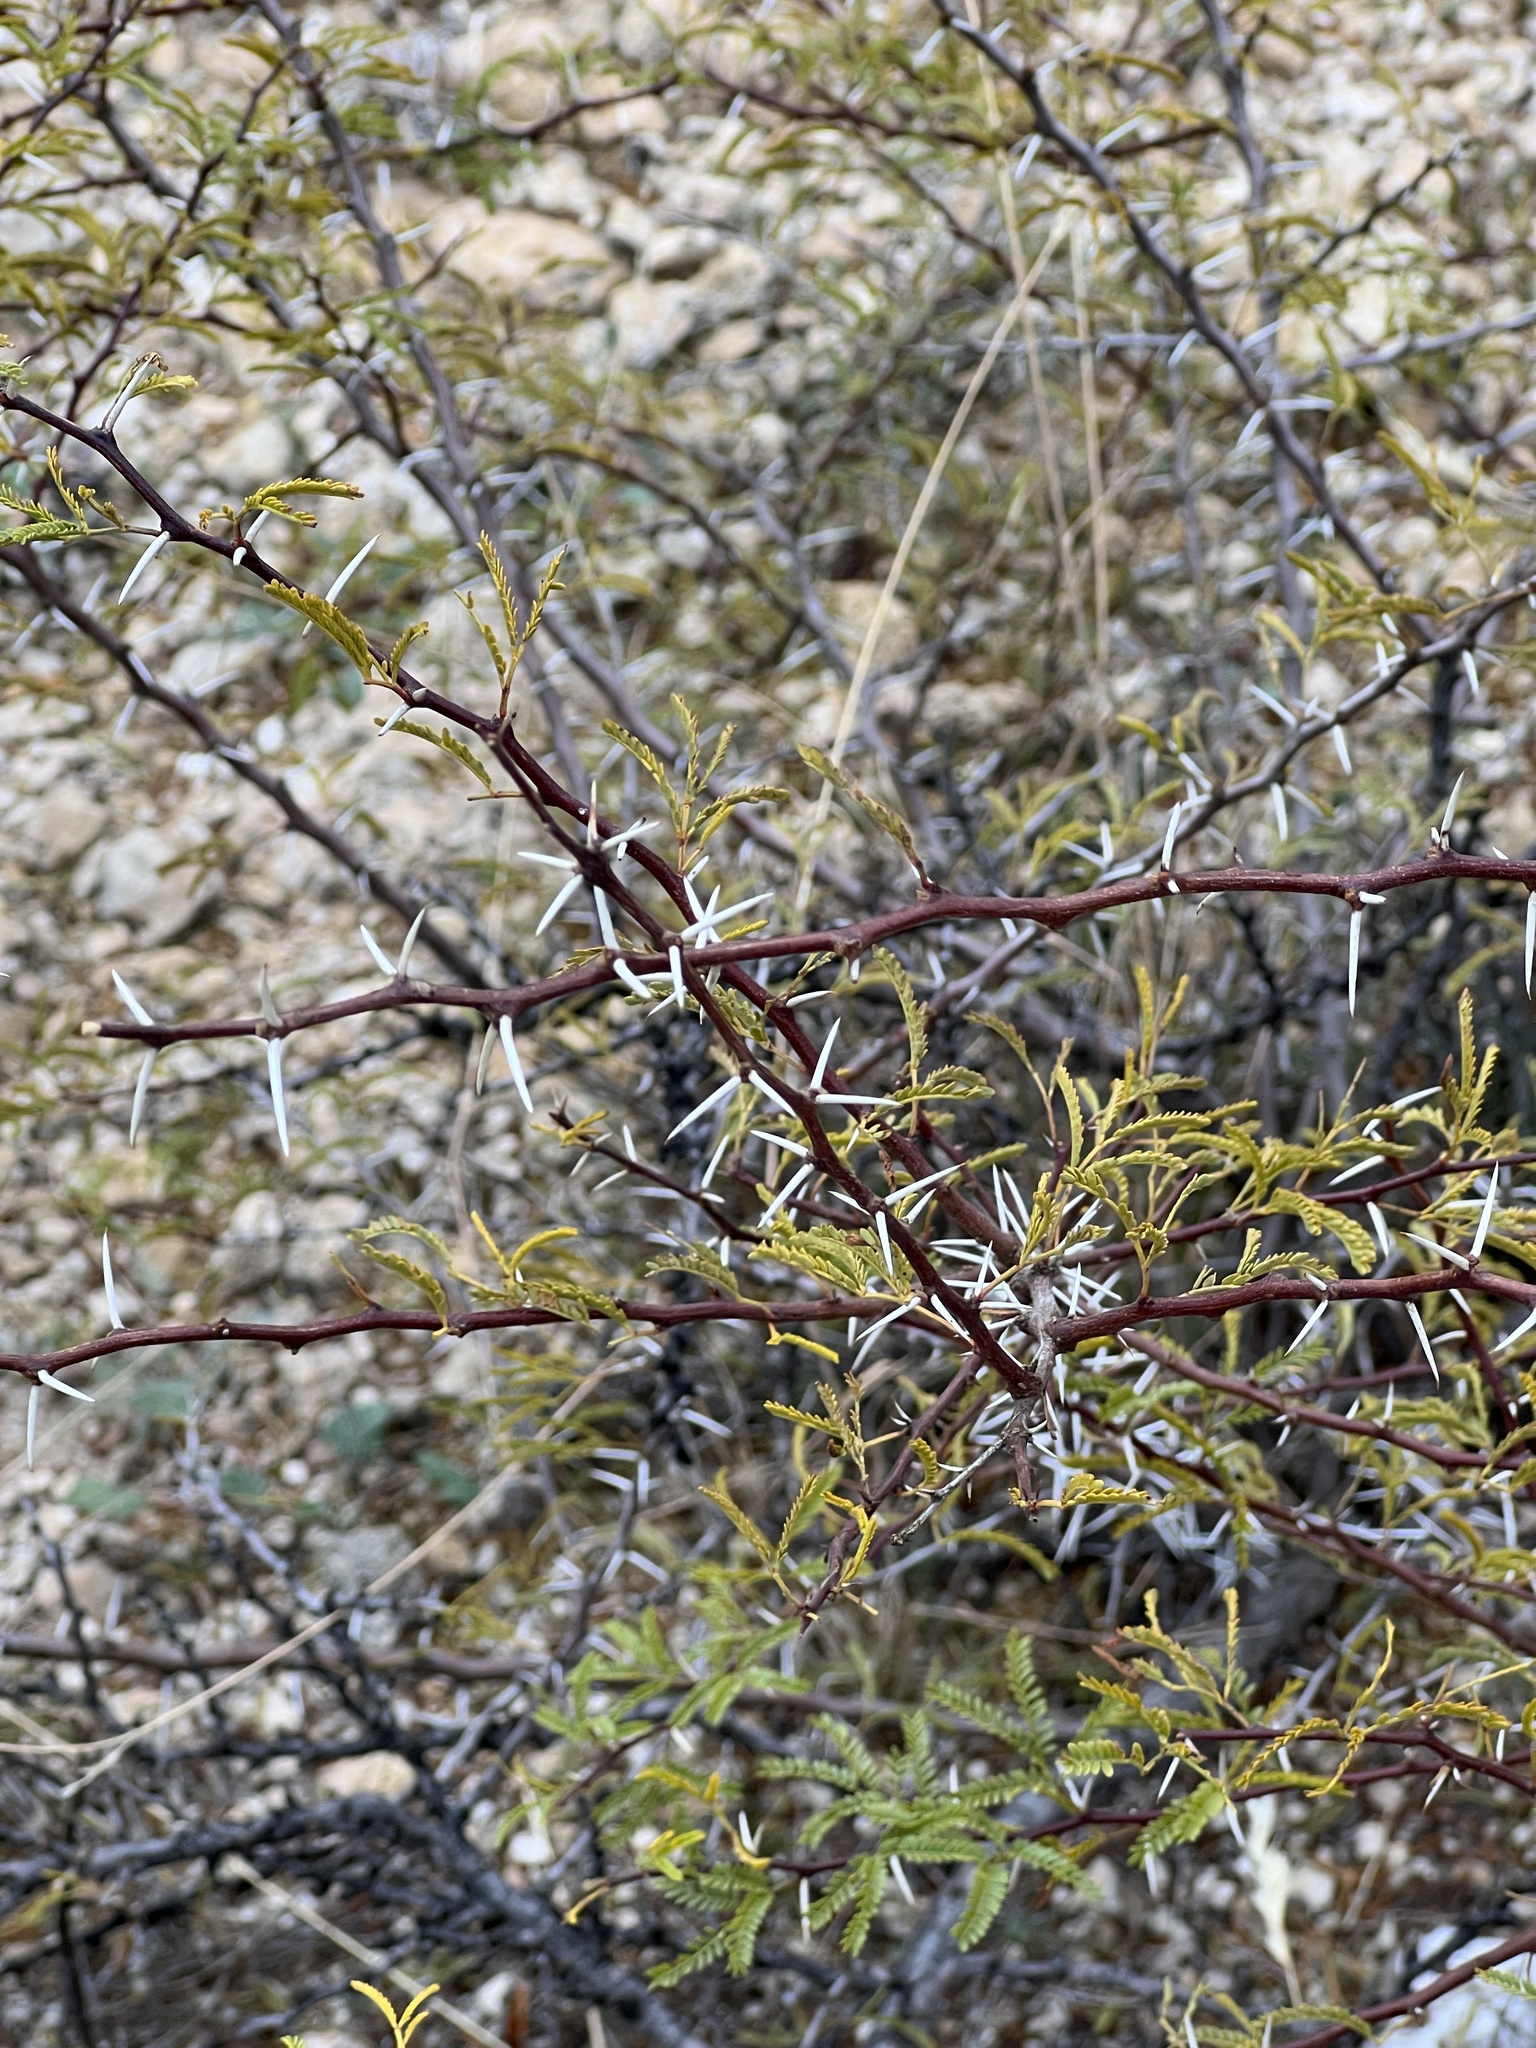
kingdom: Plantae
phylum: Tracheophyta
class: Magnoliopsida
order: Fabales
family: Fabaceae
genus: Vachellia
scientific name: Vachellia vernicosa
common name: Viscid acacia
